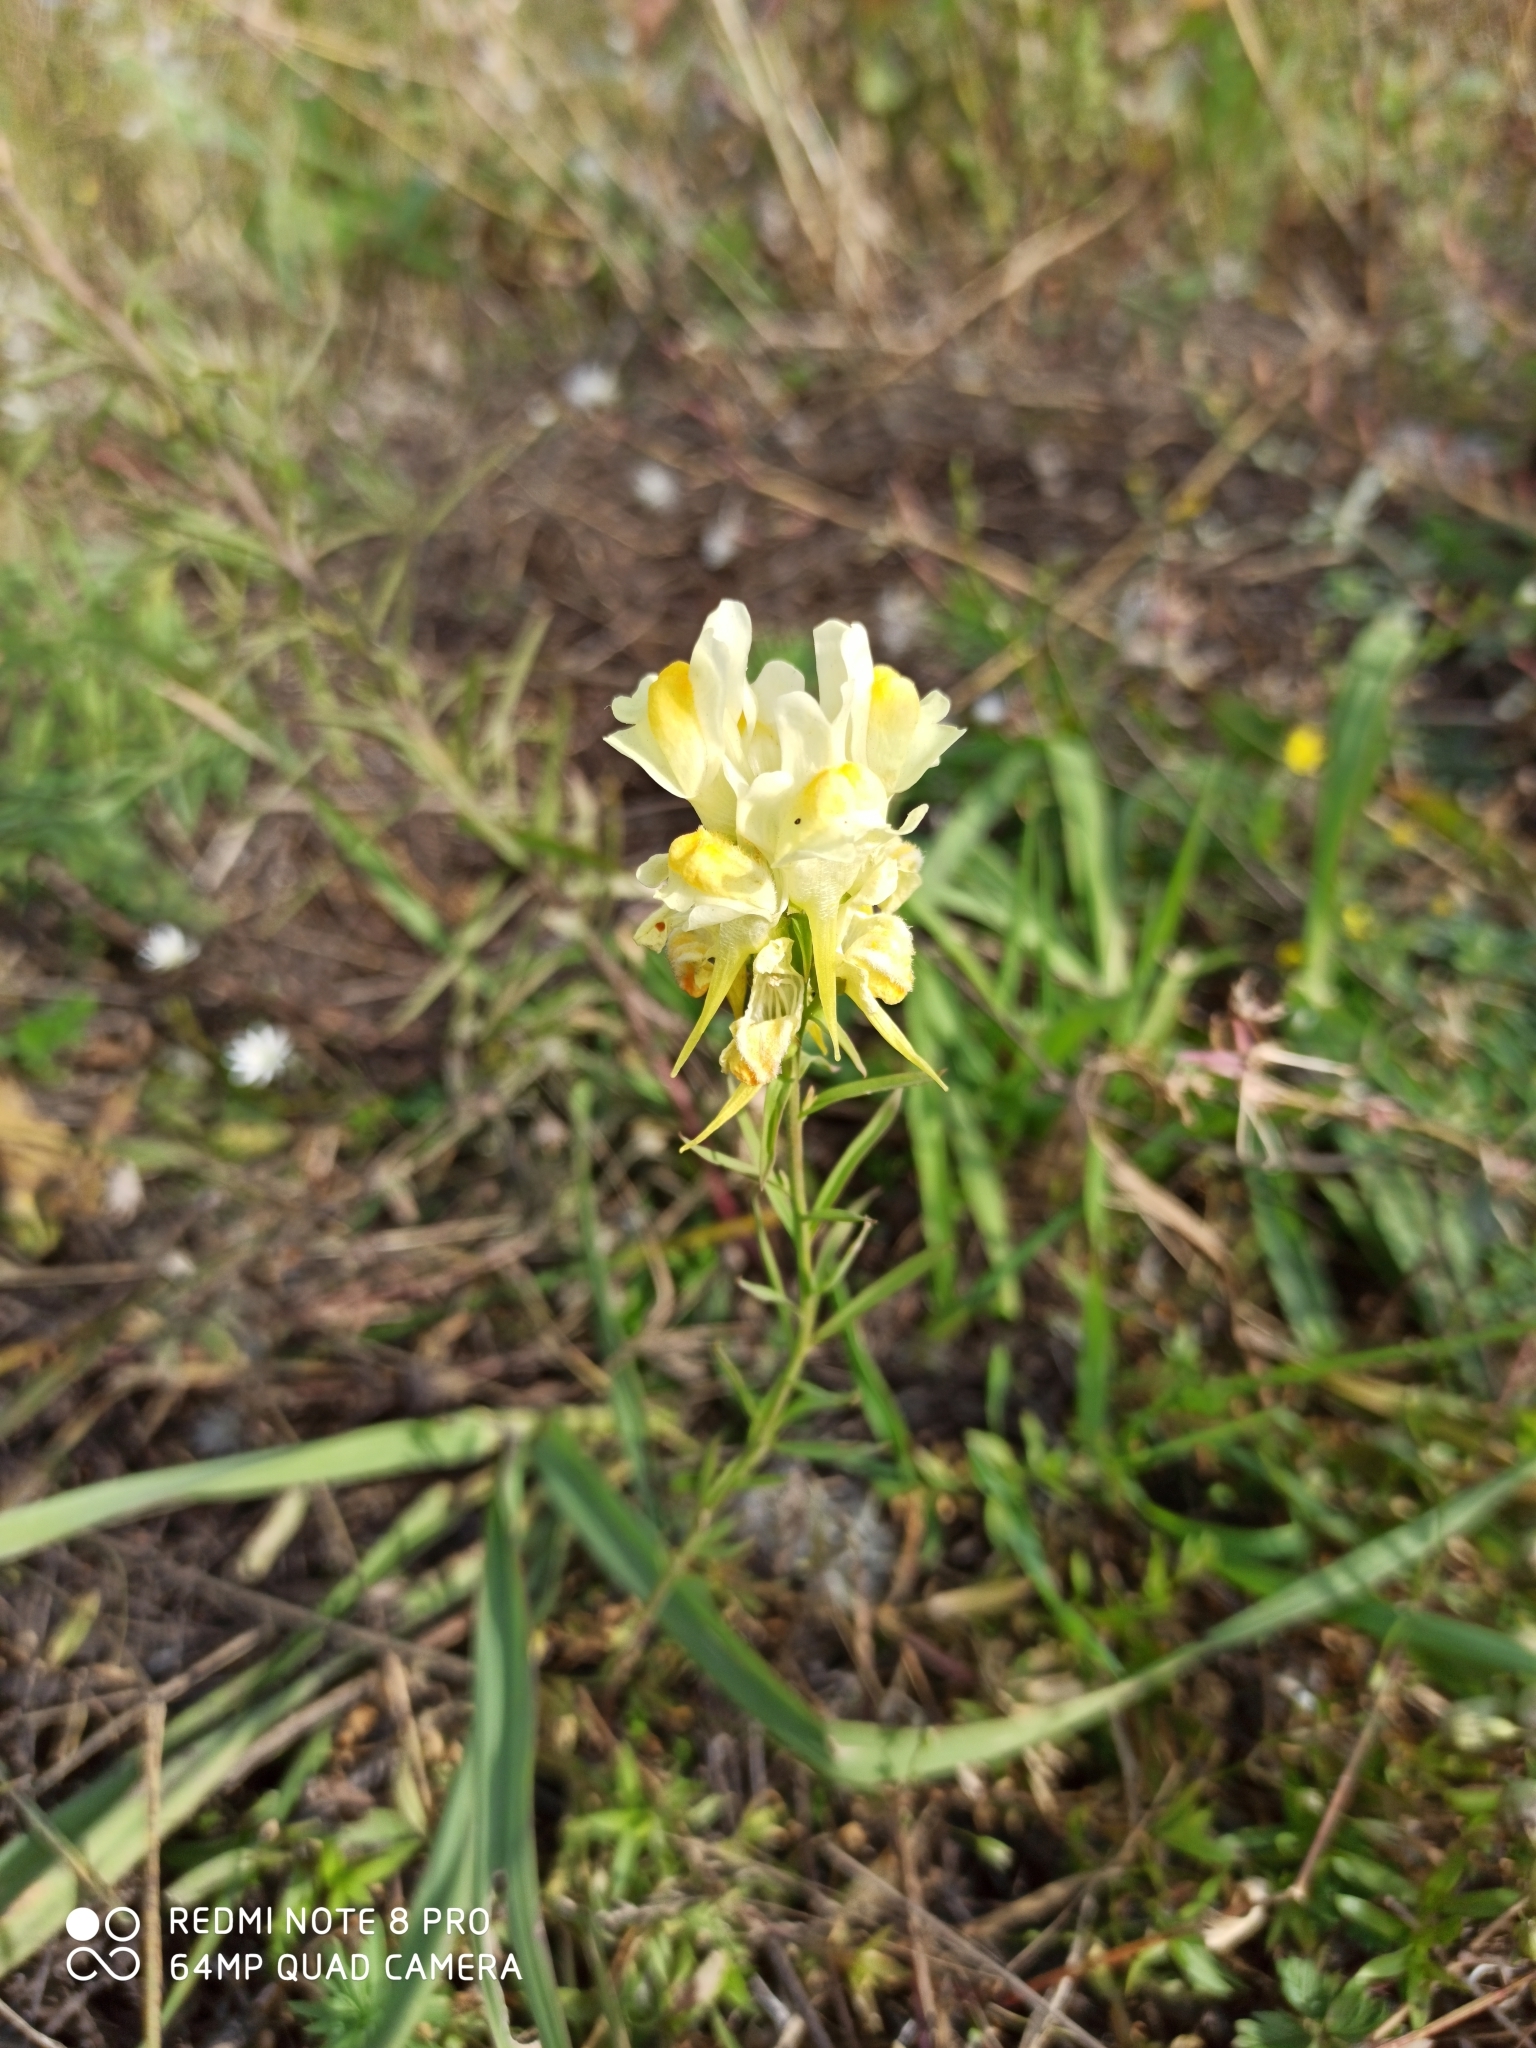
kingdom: Plantae
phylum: Tracheophyta
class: Magnoliopsida
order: Lamiales
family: Plantaginaceae
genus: Linaria
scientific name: Linaria vulgaris
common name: Butter and eggs
